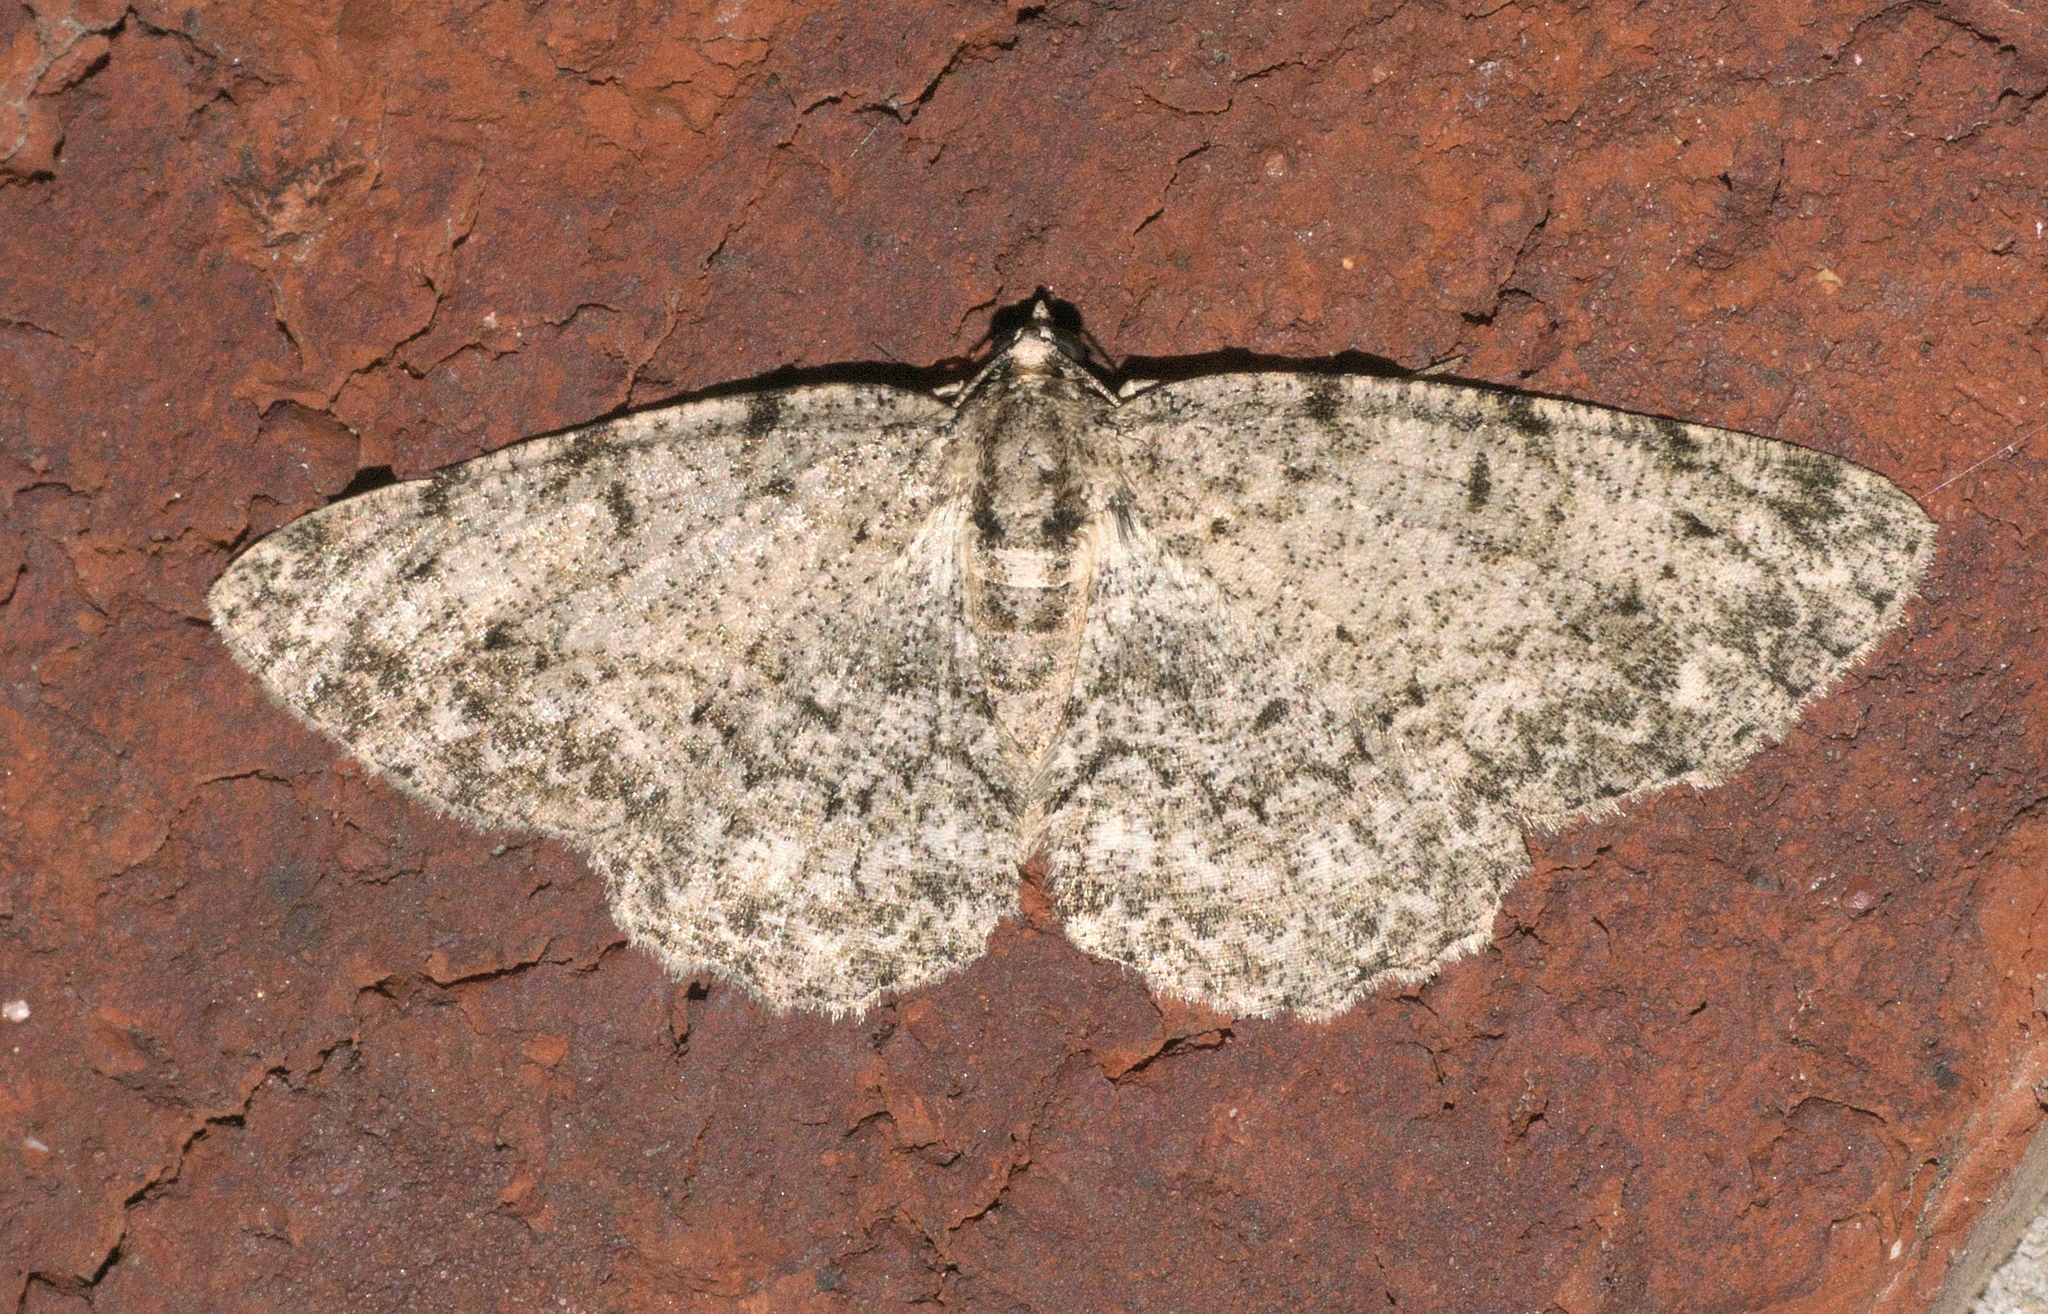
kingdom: Animalia
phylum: Arthropoda
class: Insecta
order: Lepidoptera
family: Geometridae
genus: Protoboarmia
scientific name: Protoboarmia porcelaria
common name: Porcelain gray
